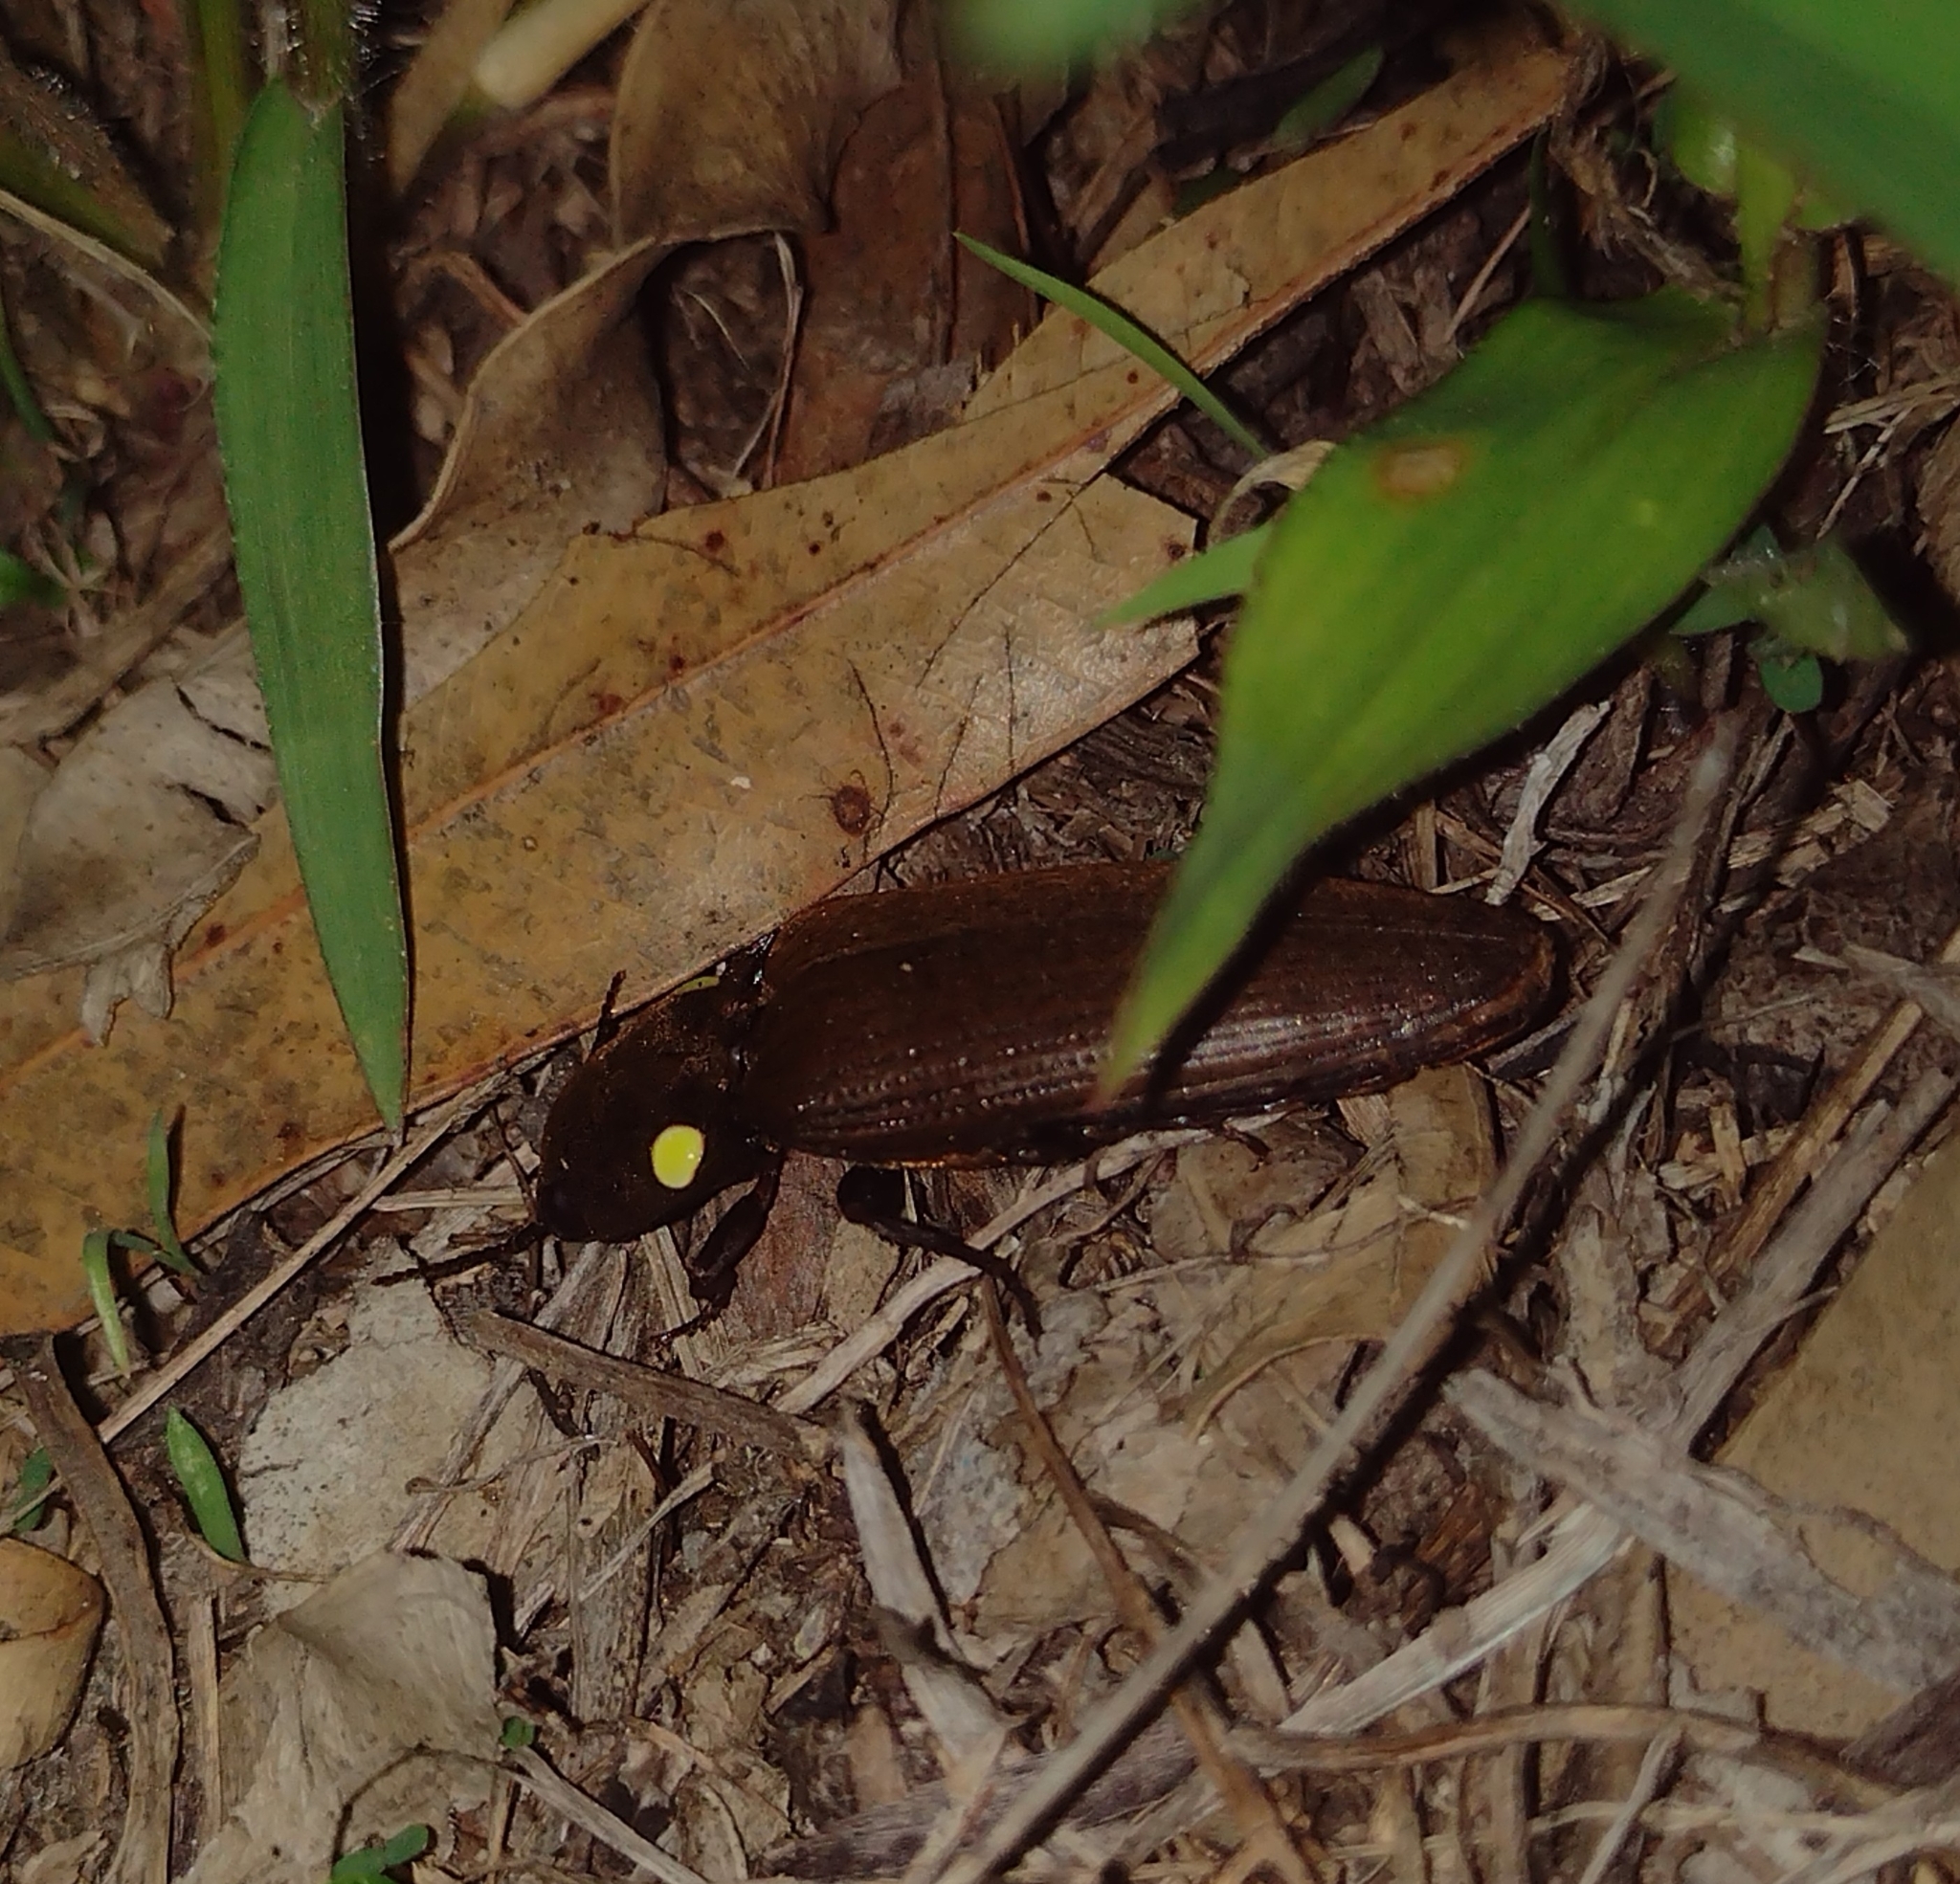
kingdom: Animalia
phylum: Arthropoda
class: Insecta
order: Coleoptera
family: Elateridae
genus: Pyrophorus
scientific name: Pyrophorus
